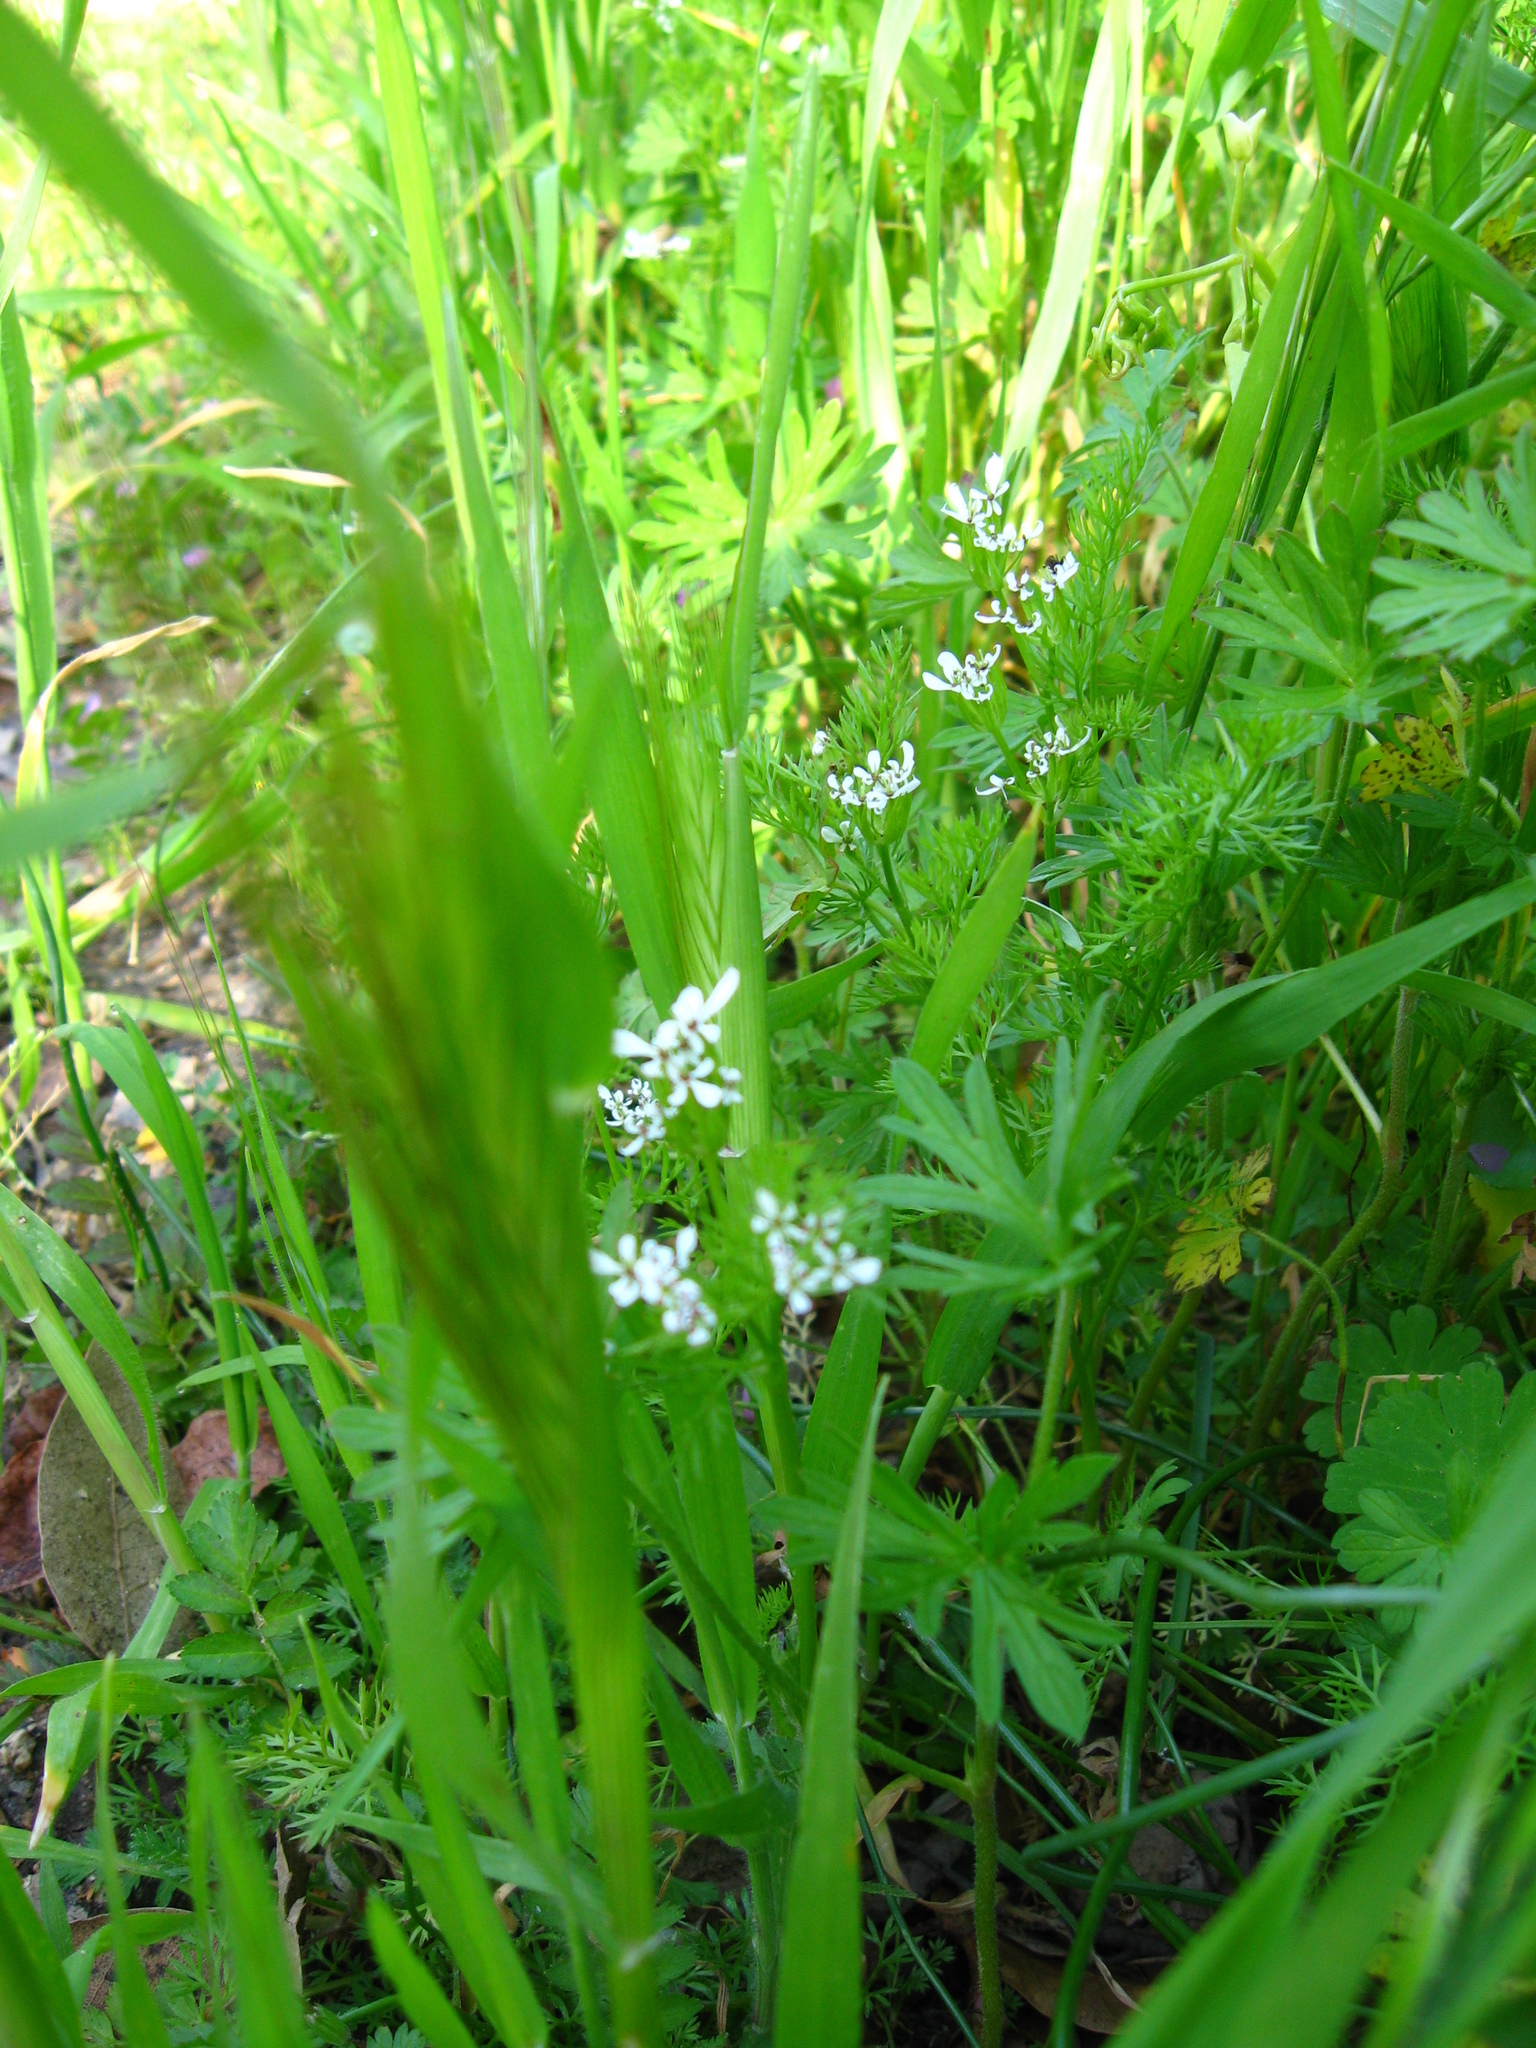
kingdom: Plantae
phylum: Tracheophyta
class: Magnoliopsida
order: Apiales
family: Apiaceae
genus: Scandix
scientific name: Scandix pecten-veneris
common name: Shepherd's-needle
